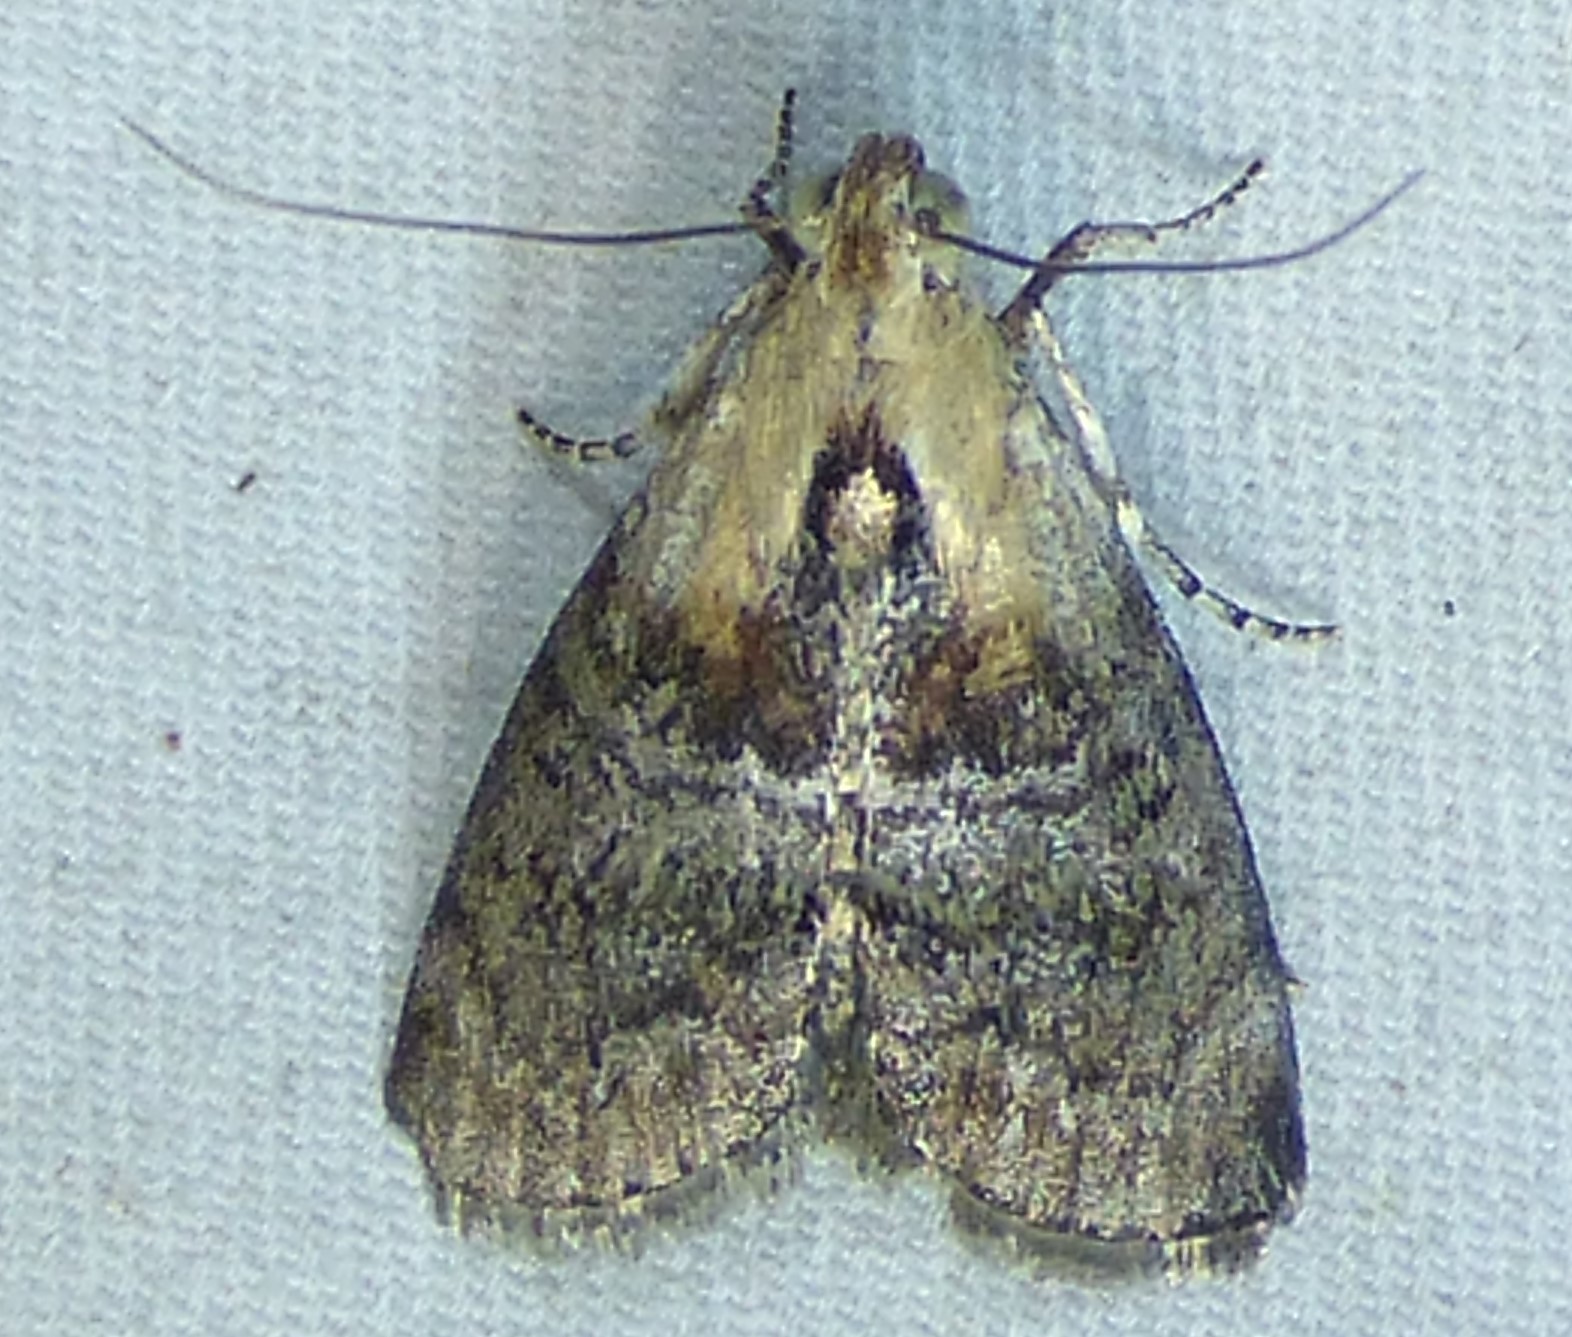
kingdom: Animalia
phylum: Arthropoda
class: Insecta
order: Lepidoptera
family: Pyralidae
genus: Pococera
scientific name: Pococera expandens
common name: Striped oak webworm moth
